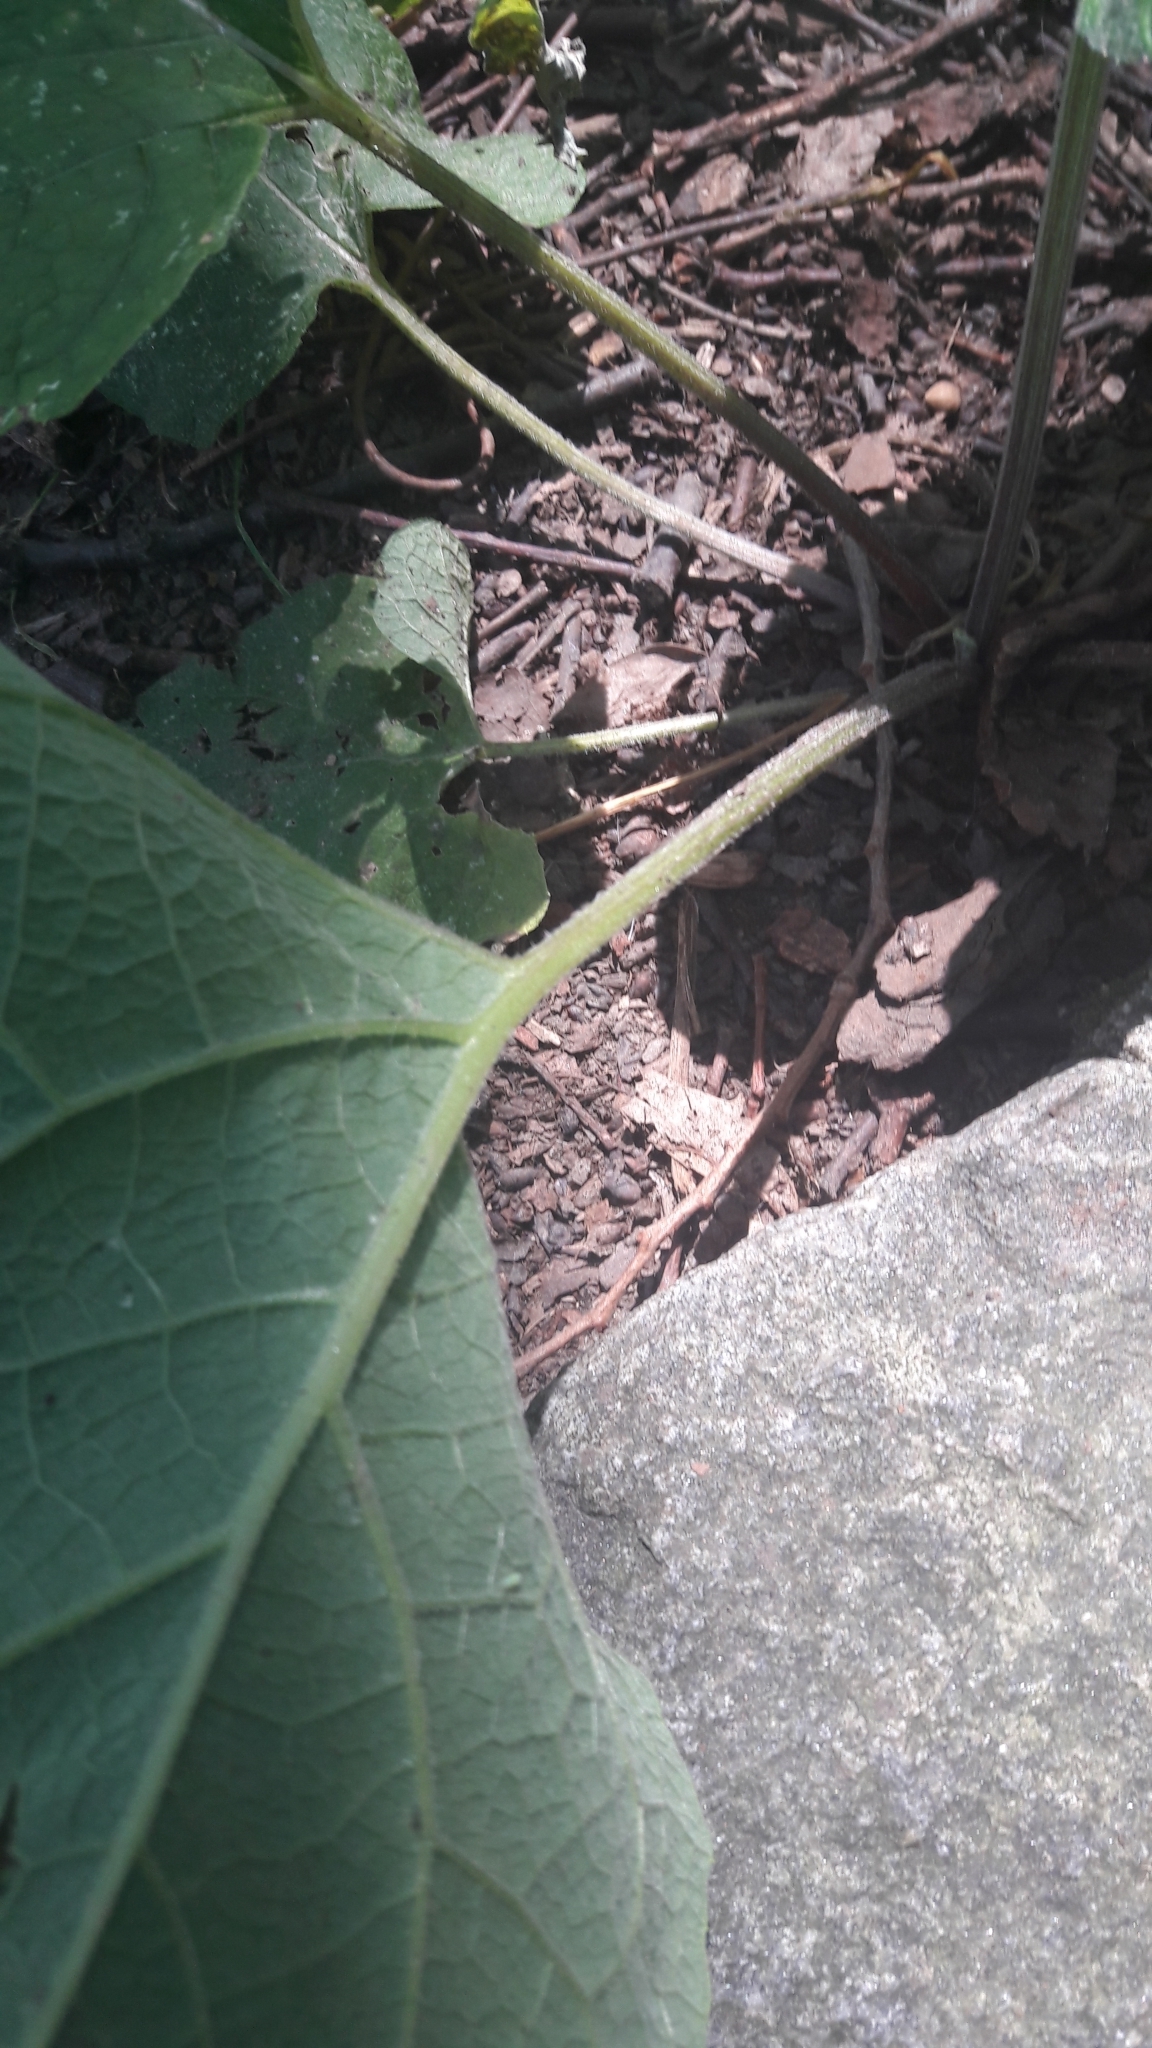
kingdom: Plantae
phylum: Tracheophyta
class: Magnoliopsida
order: Asterales
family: Asteraceae
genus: Arctium
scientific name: Arctium
